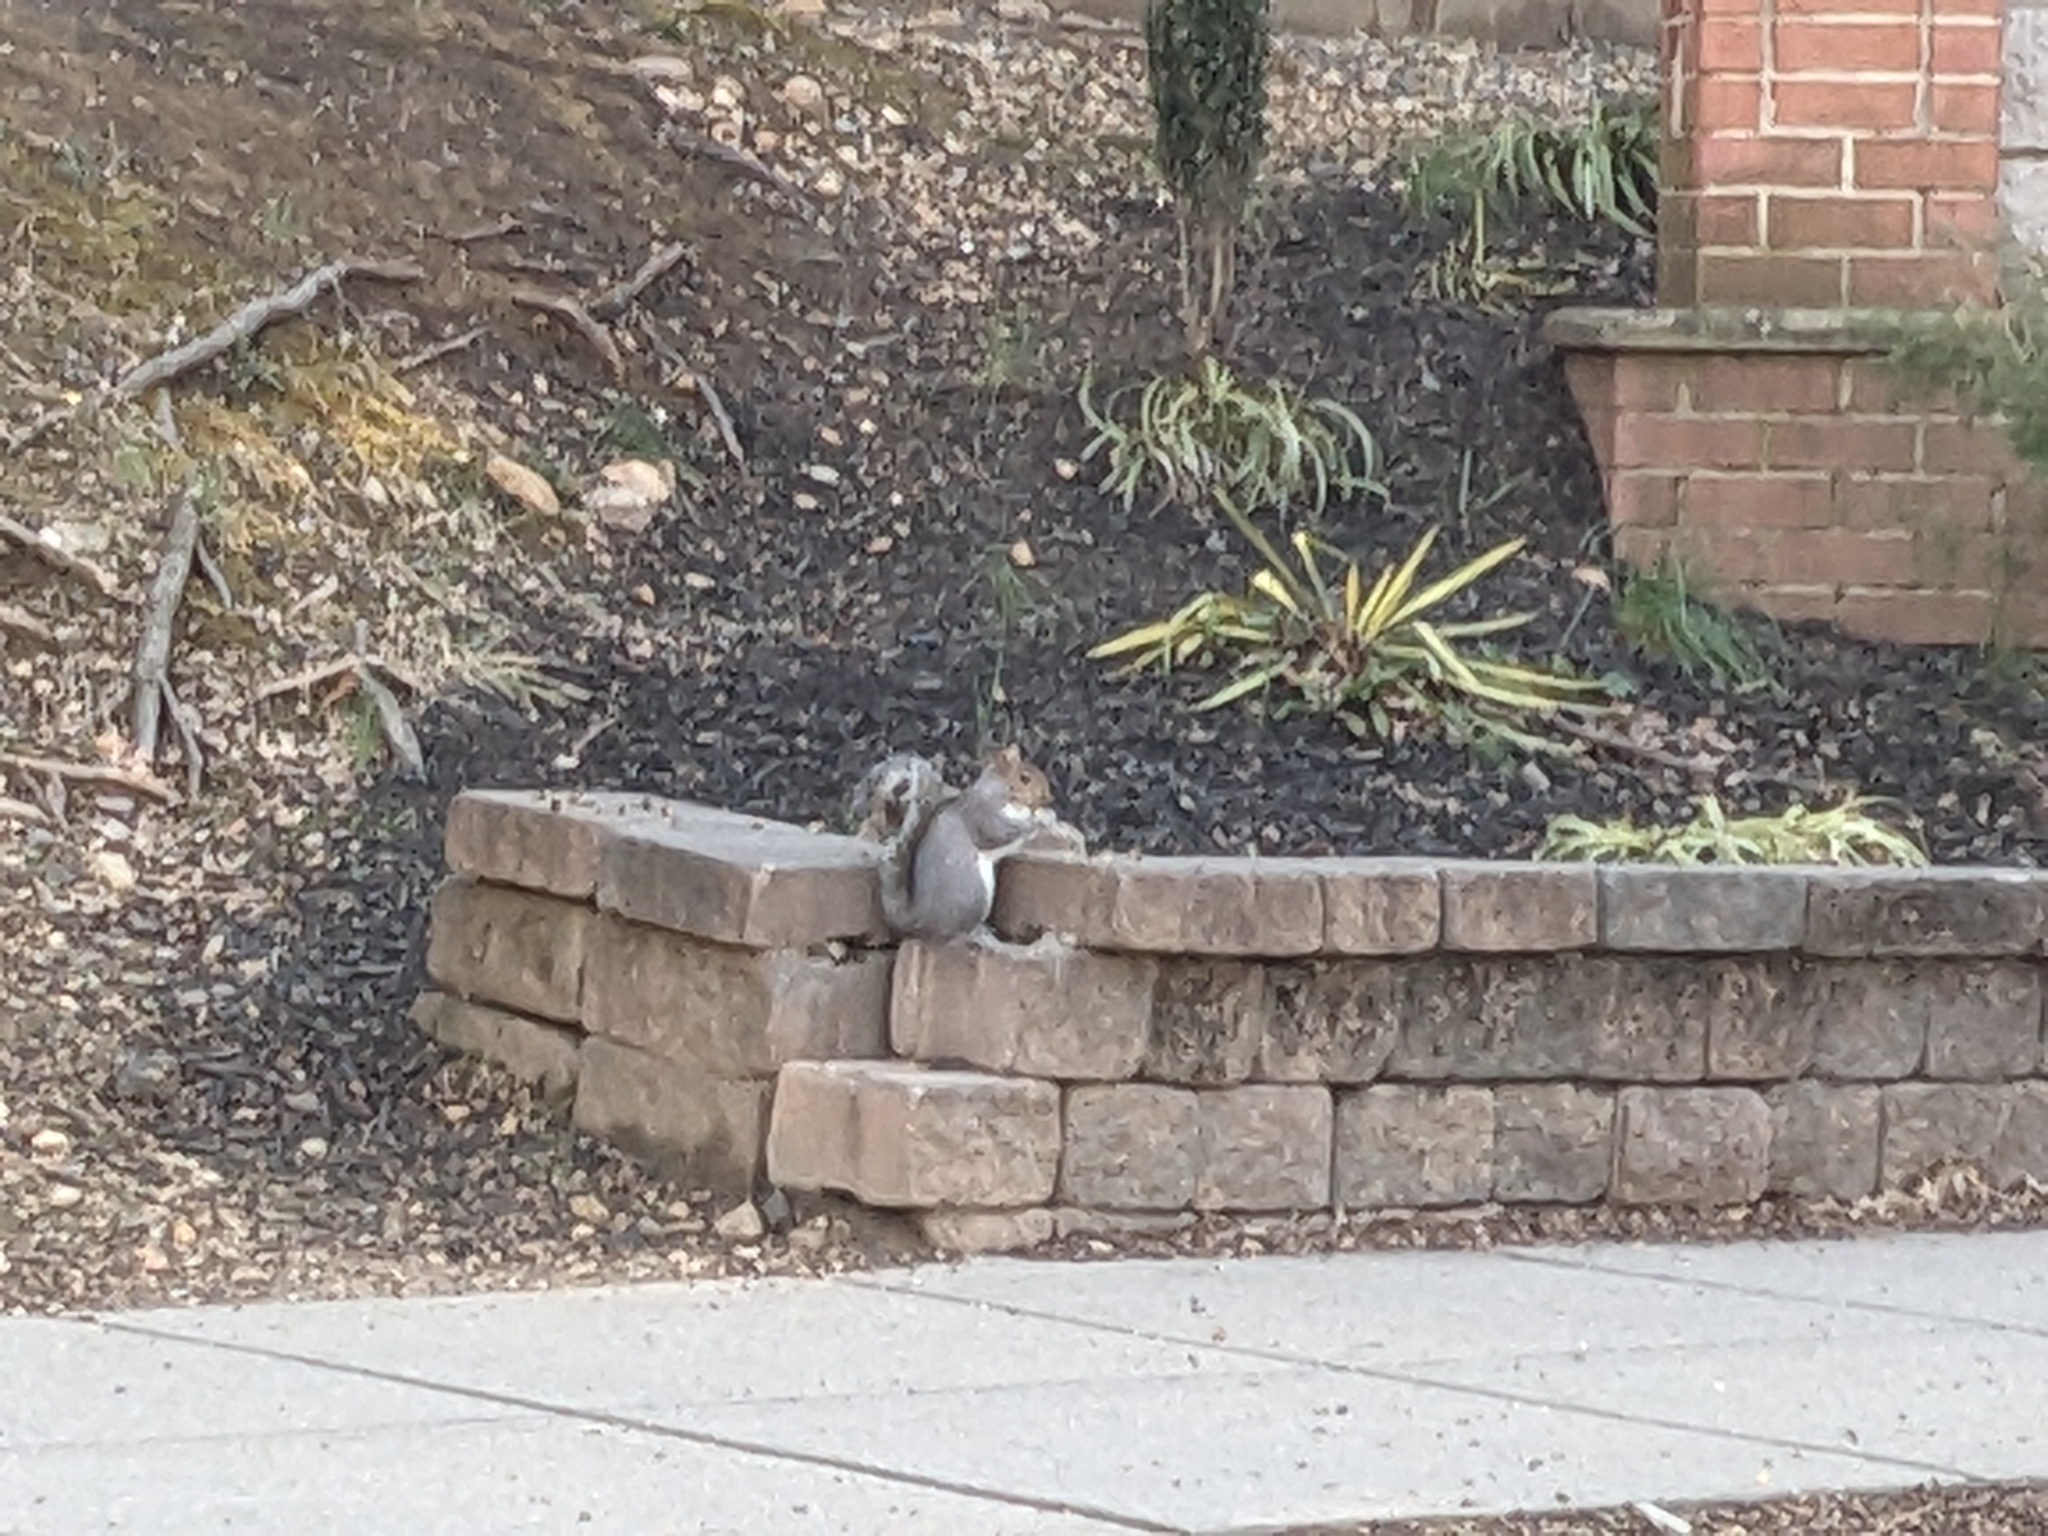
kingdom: Animalia
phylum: Chordata
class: Mammalia
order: Rodentia
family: Sciuridae
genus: Sciurus
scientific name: Sciurus carolinensis
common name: Eastern gray squirrel
